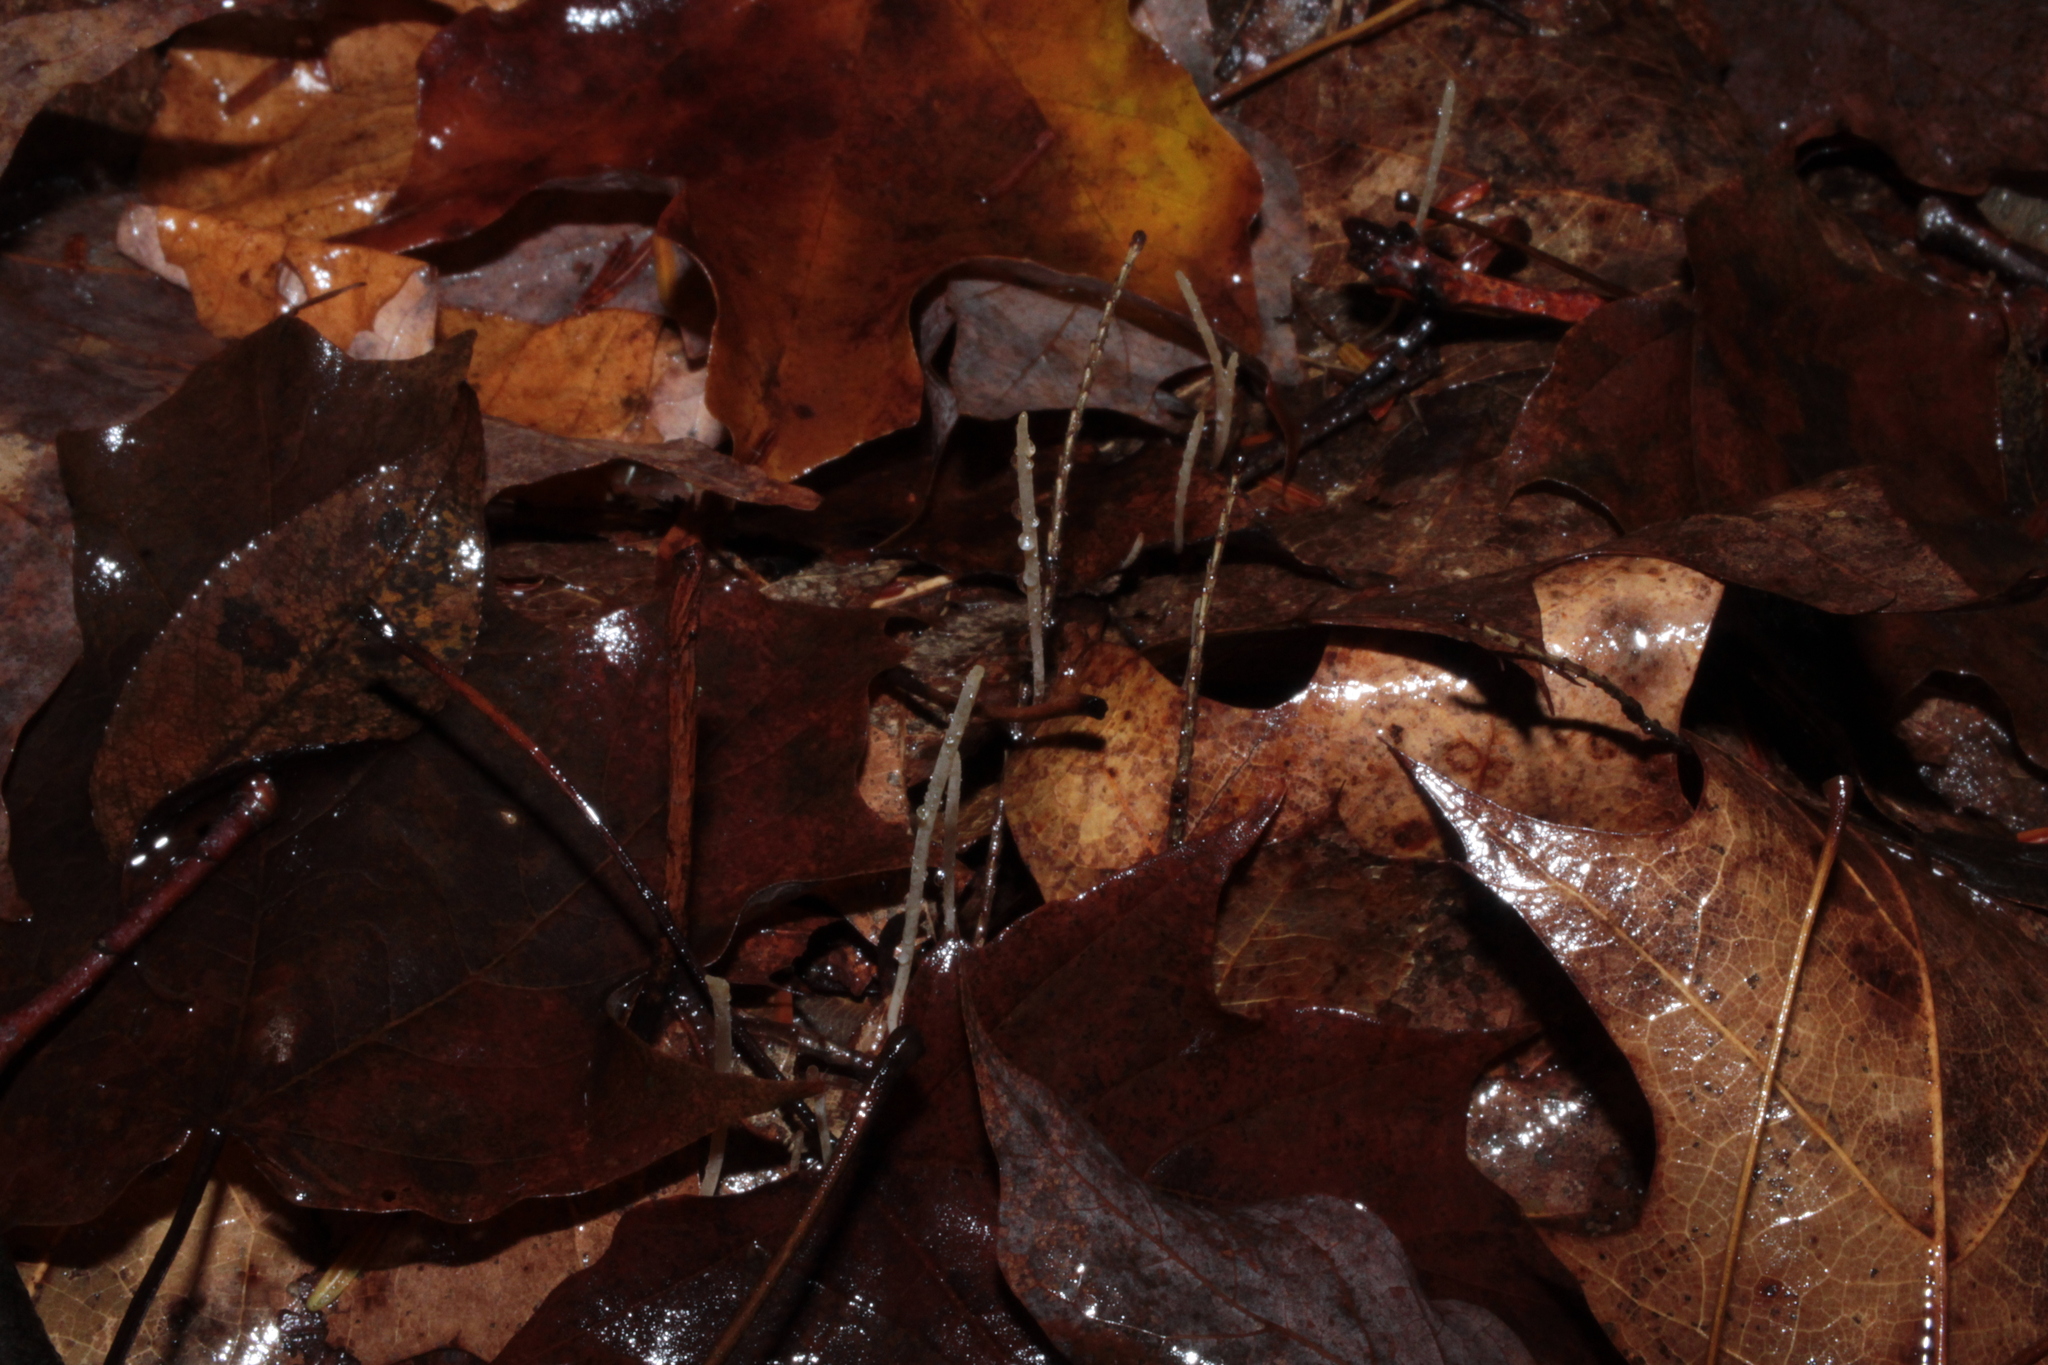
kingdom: Fungi
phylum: Basidiomycota
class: Agaricomycetes
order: Agaricales
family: Typhulaceae
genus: Typhula
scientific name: Typhula juncea
